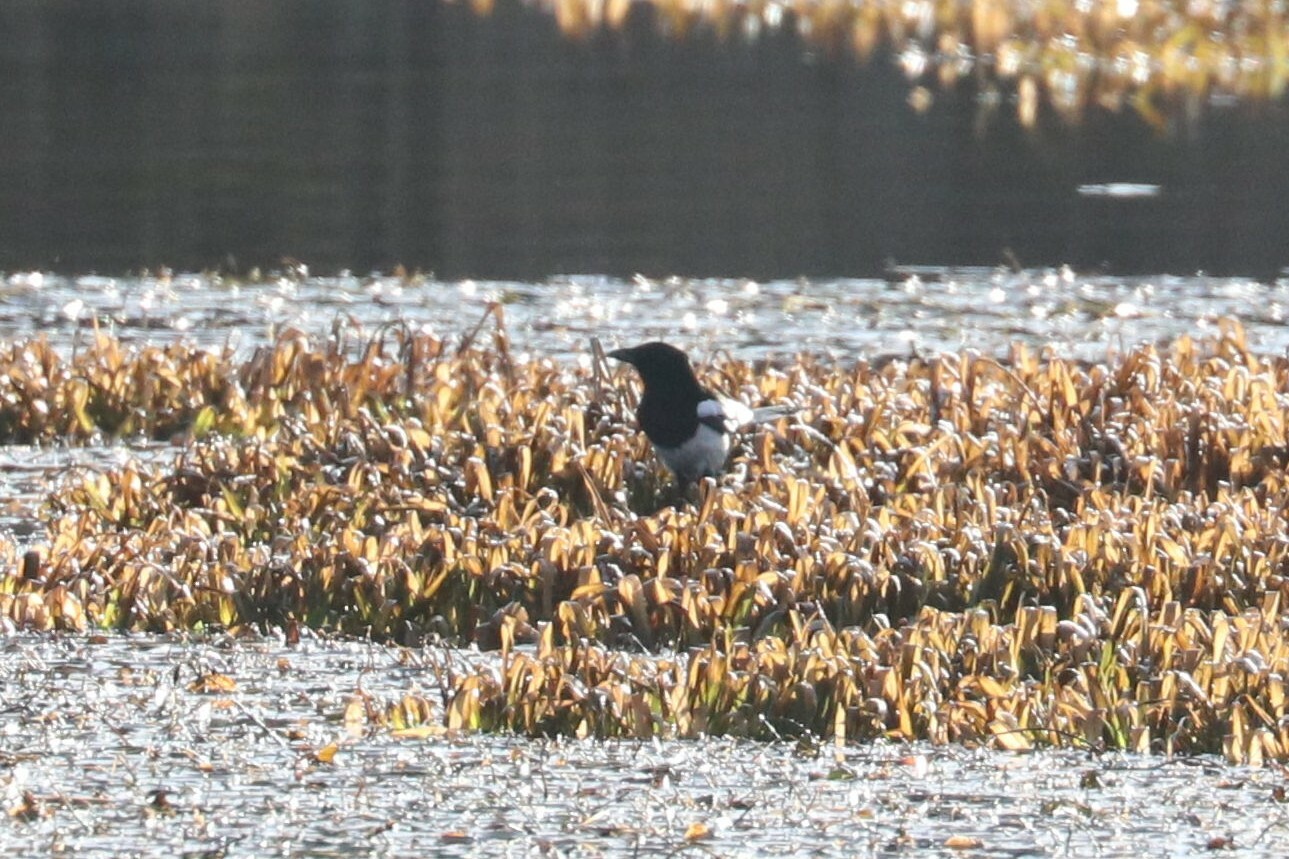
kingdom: Animalia
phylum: Chordata
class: Aves
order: Passeriformes
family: Corvidae
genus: Pica
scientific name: Pica pica
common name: Eurasian magpie
